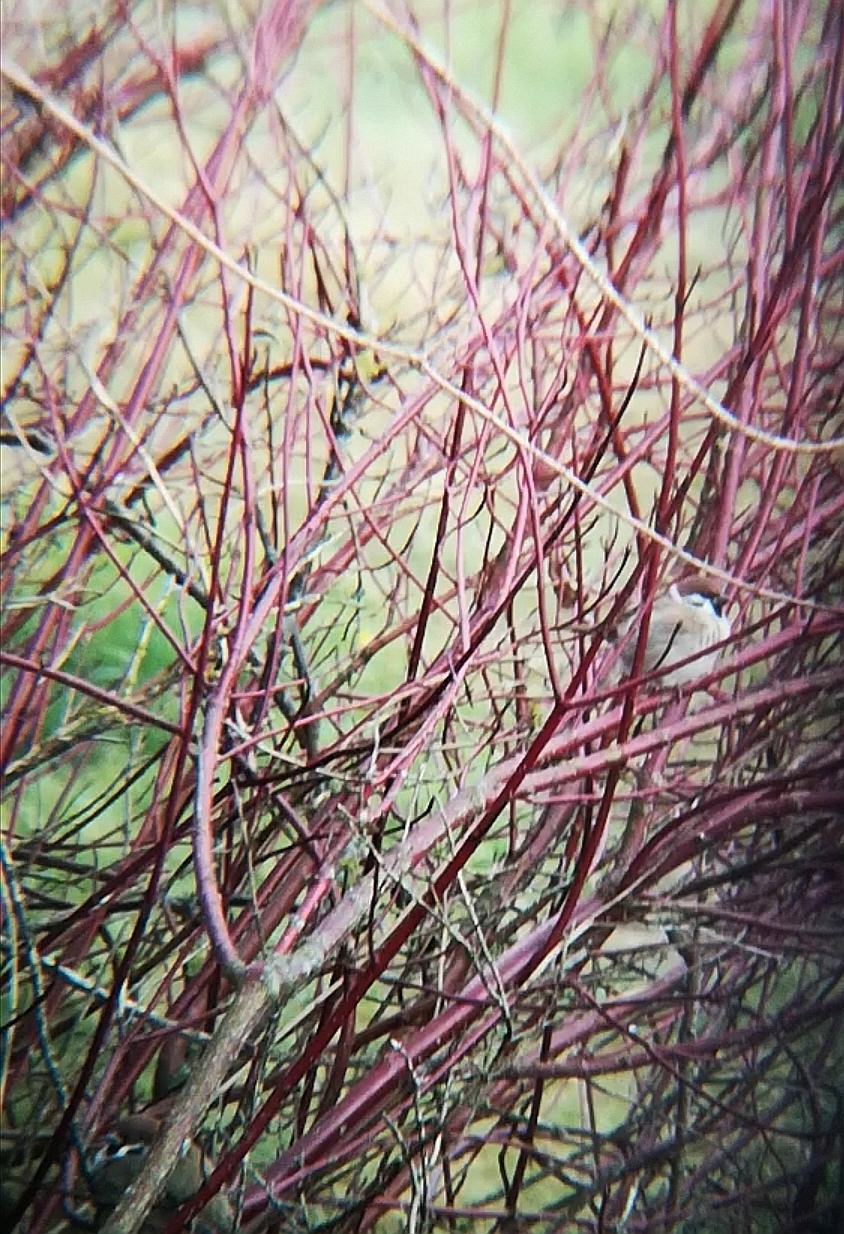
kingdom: Animalia
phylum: Chordata
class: Aves
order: Passeriformes
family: Passeridae
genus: Passer
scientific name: Passer montanus
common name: Eurasian tree sparrow
